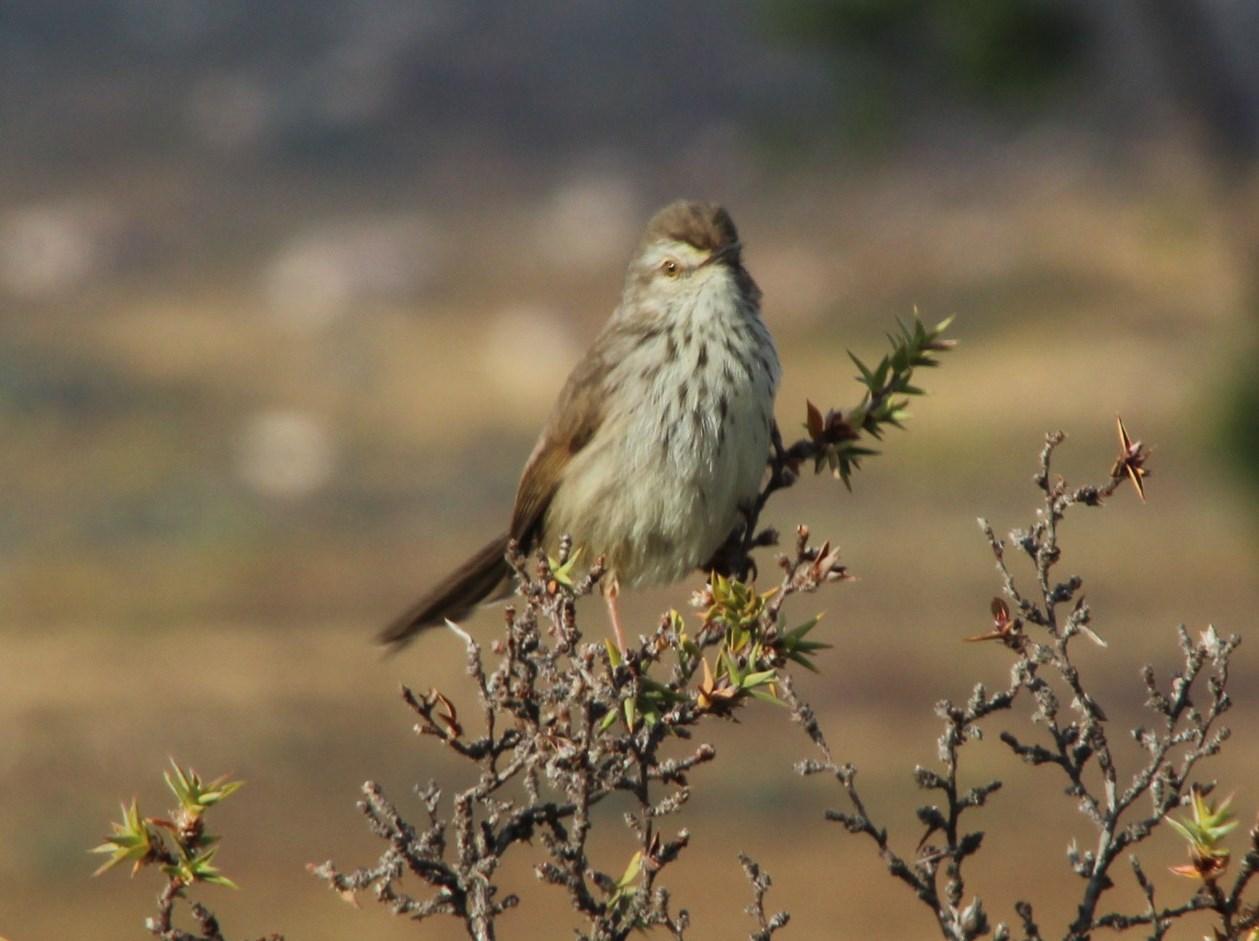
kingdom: Animalia
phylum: Chordata
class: Aves
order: Passeriformes
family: Cisticolidae
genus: Prinia
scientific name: Prinia maculosa
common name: Karoo prinia
